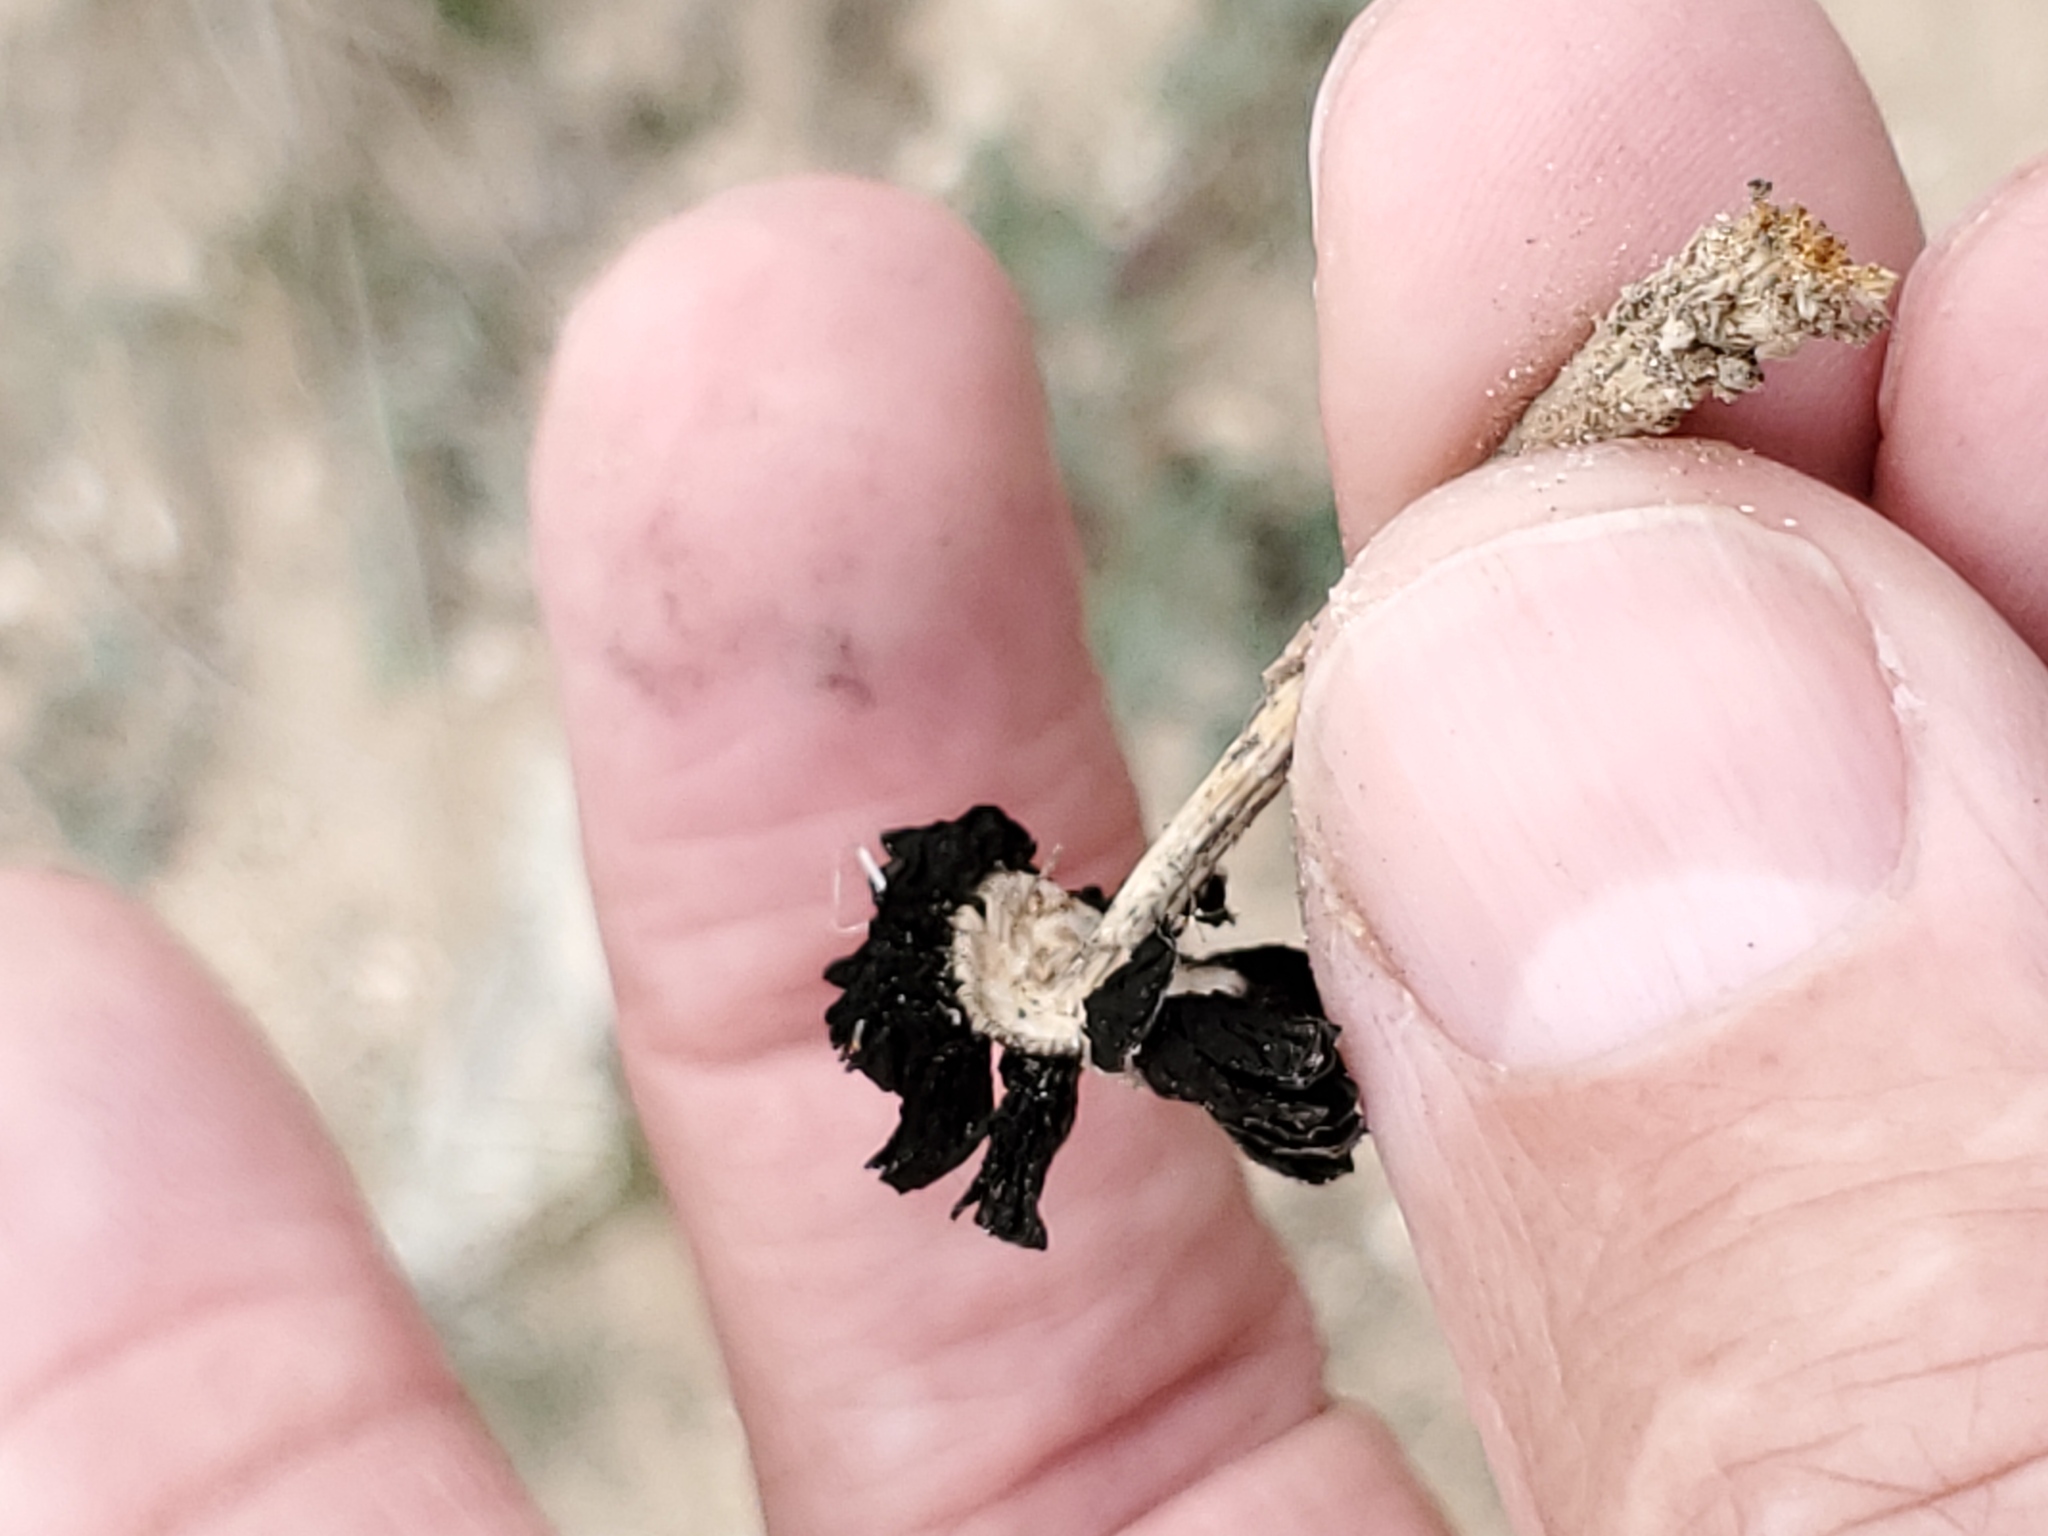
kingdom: Fungi
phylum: Basidiomycota
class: Agaricomycetes
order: Agaricales
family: Agaricaceae
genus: Montagnea
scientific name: Montagnea arenaria
